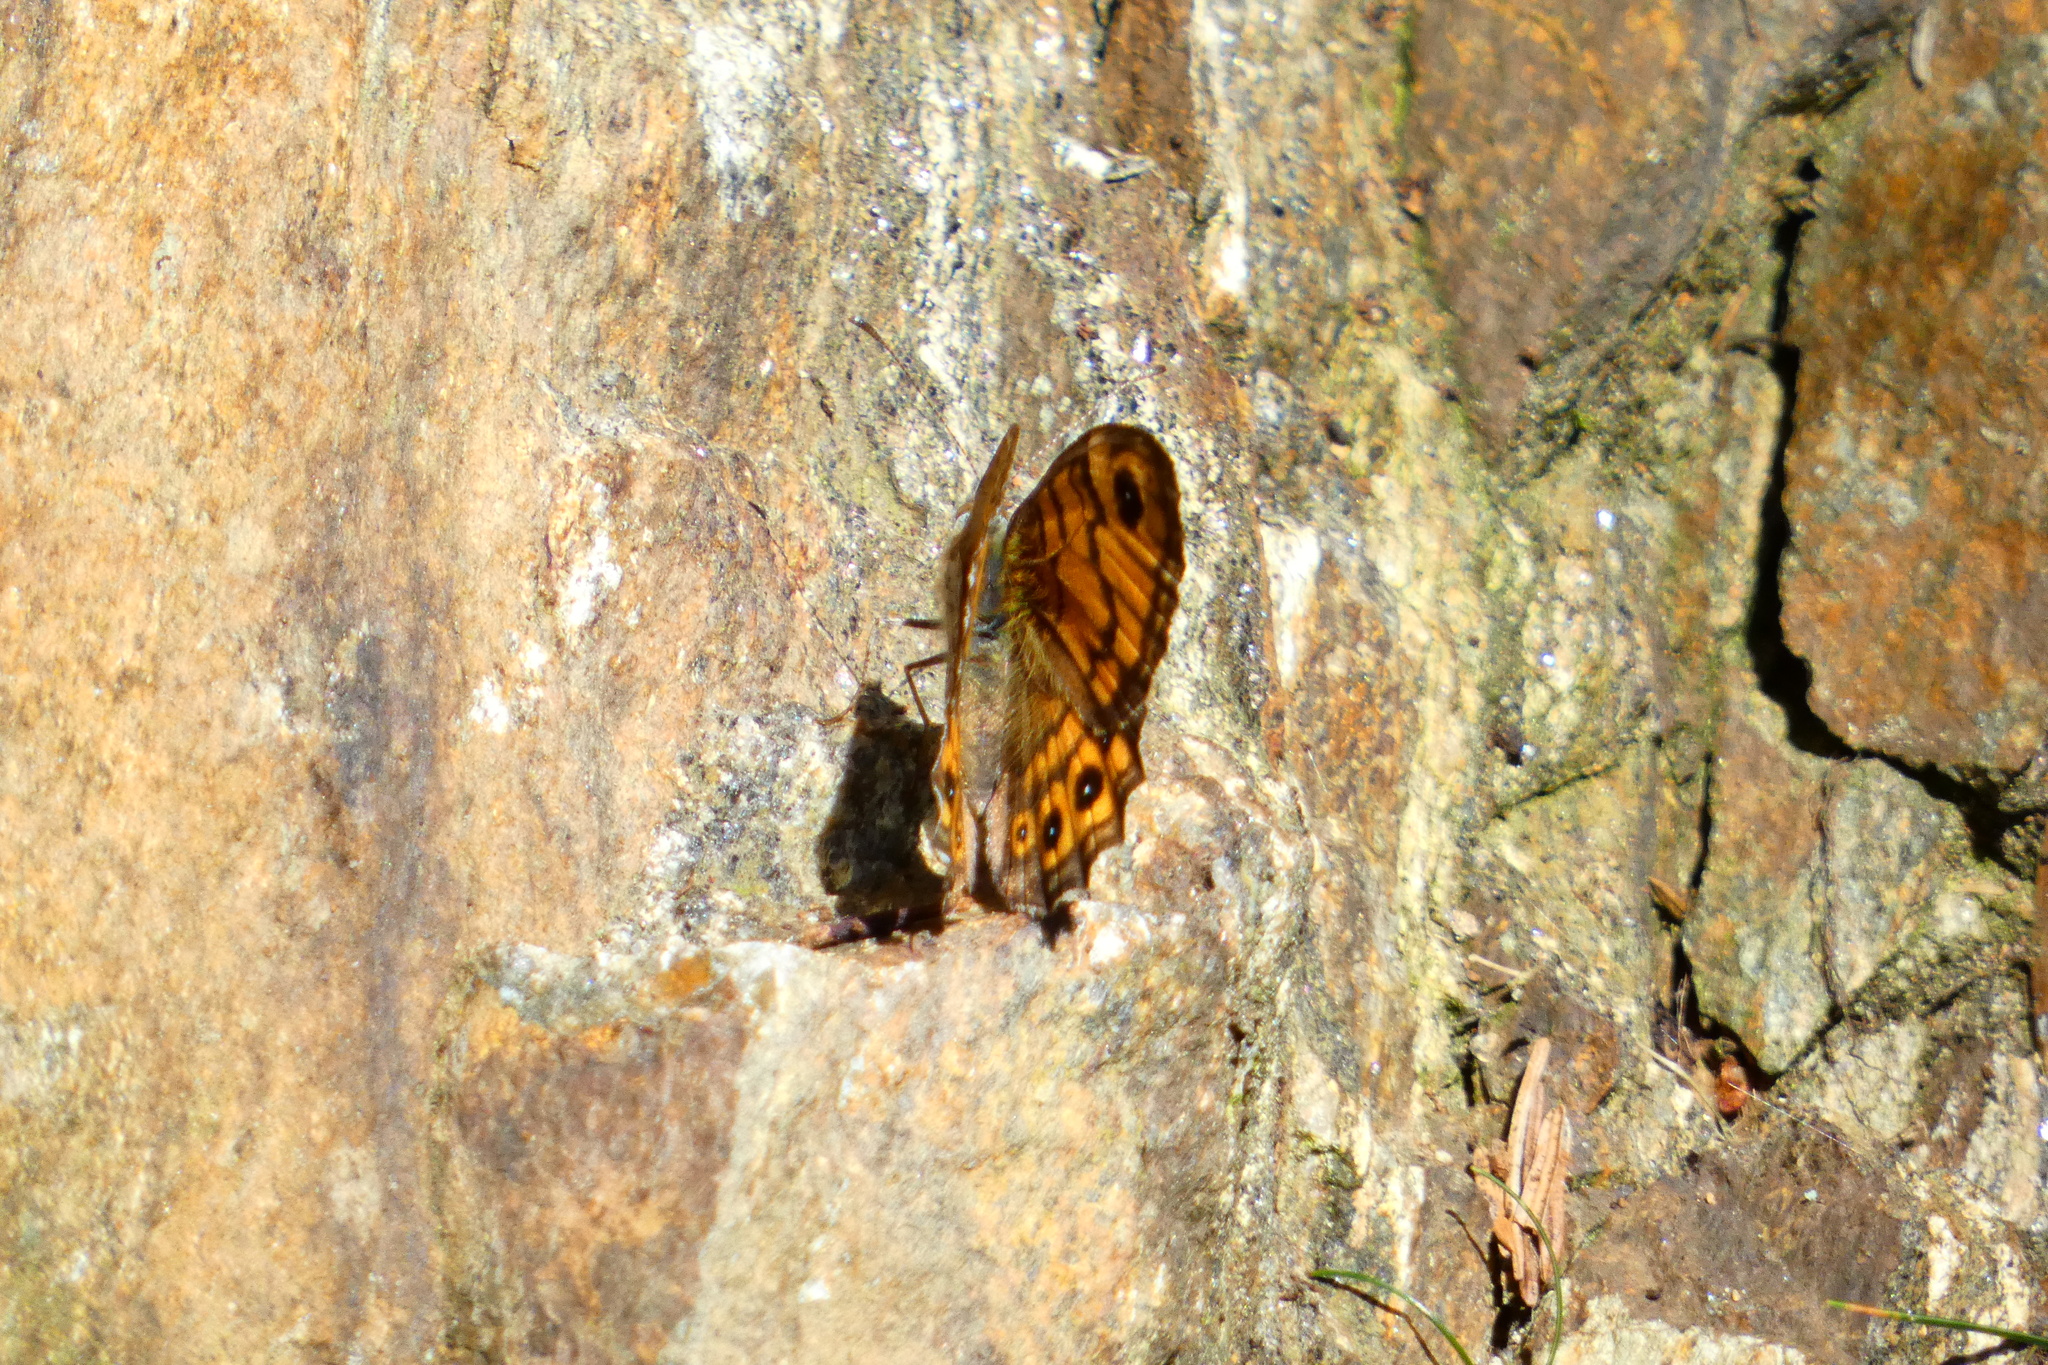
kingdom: Animalia
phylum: Arthropoda
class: Insecta
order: Lepidoptera
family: Nymphalidae
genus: Pararge
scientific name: Pararge Lasiommata megera
